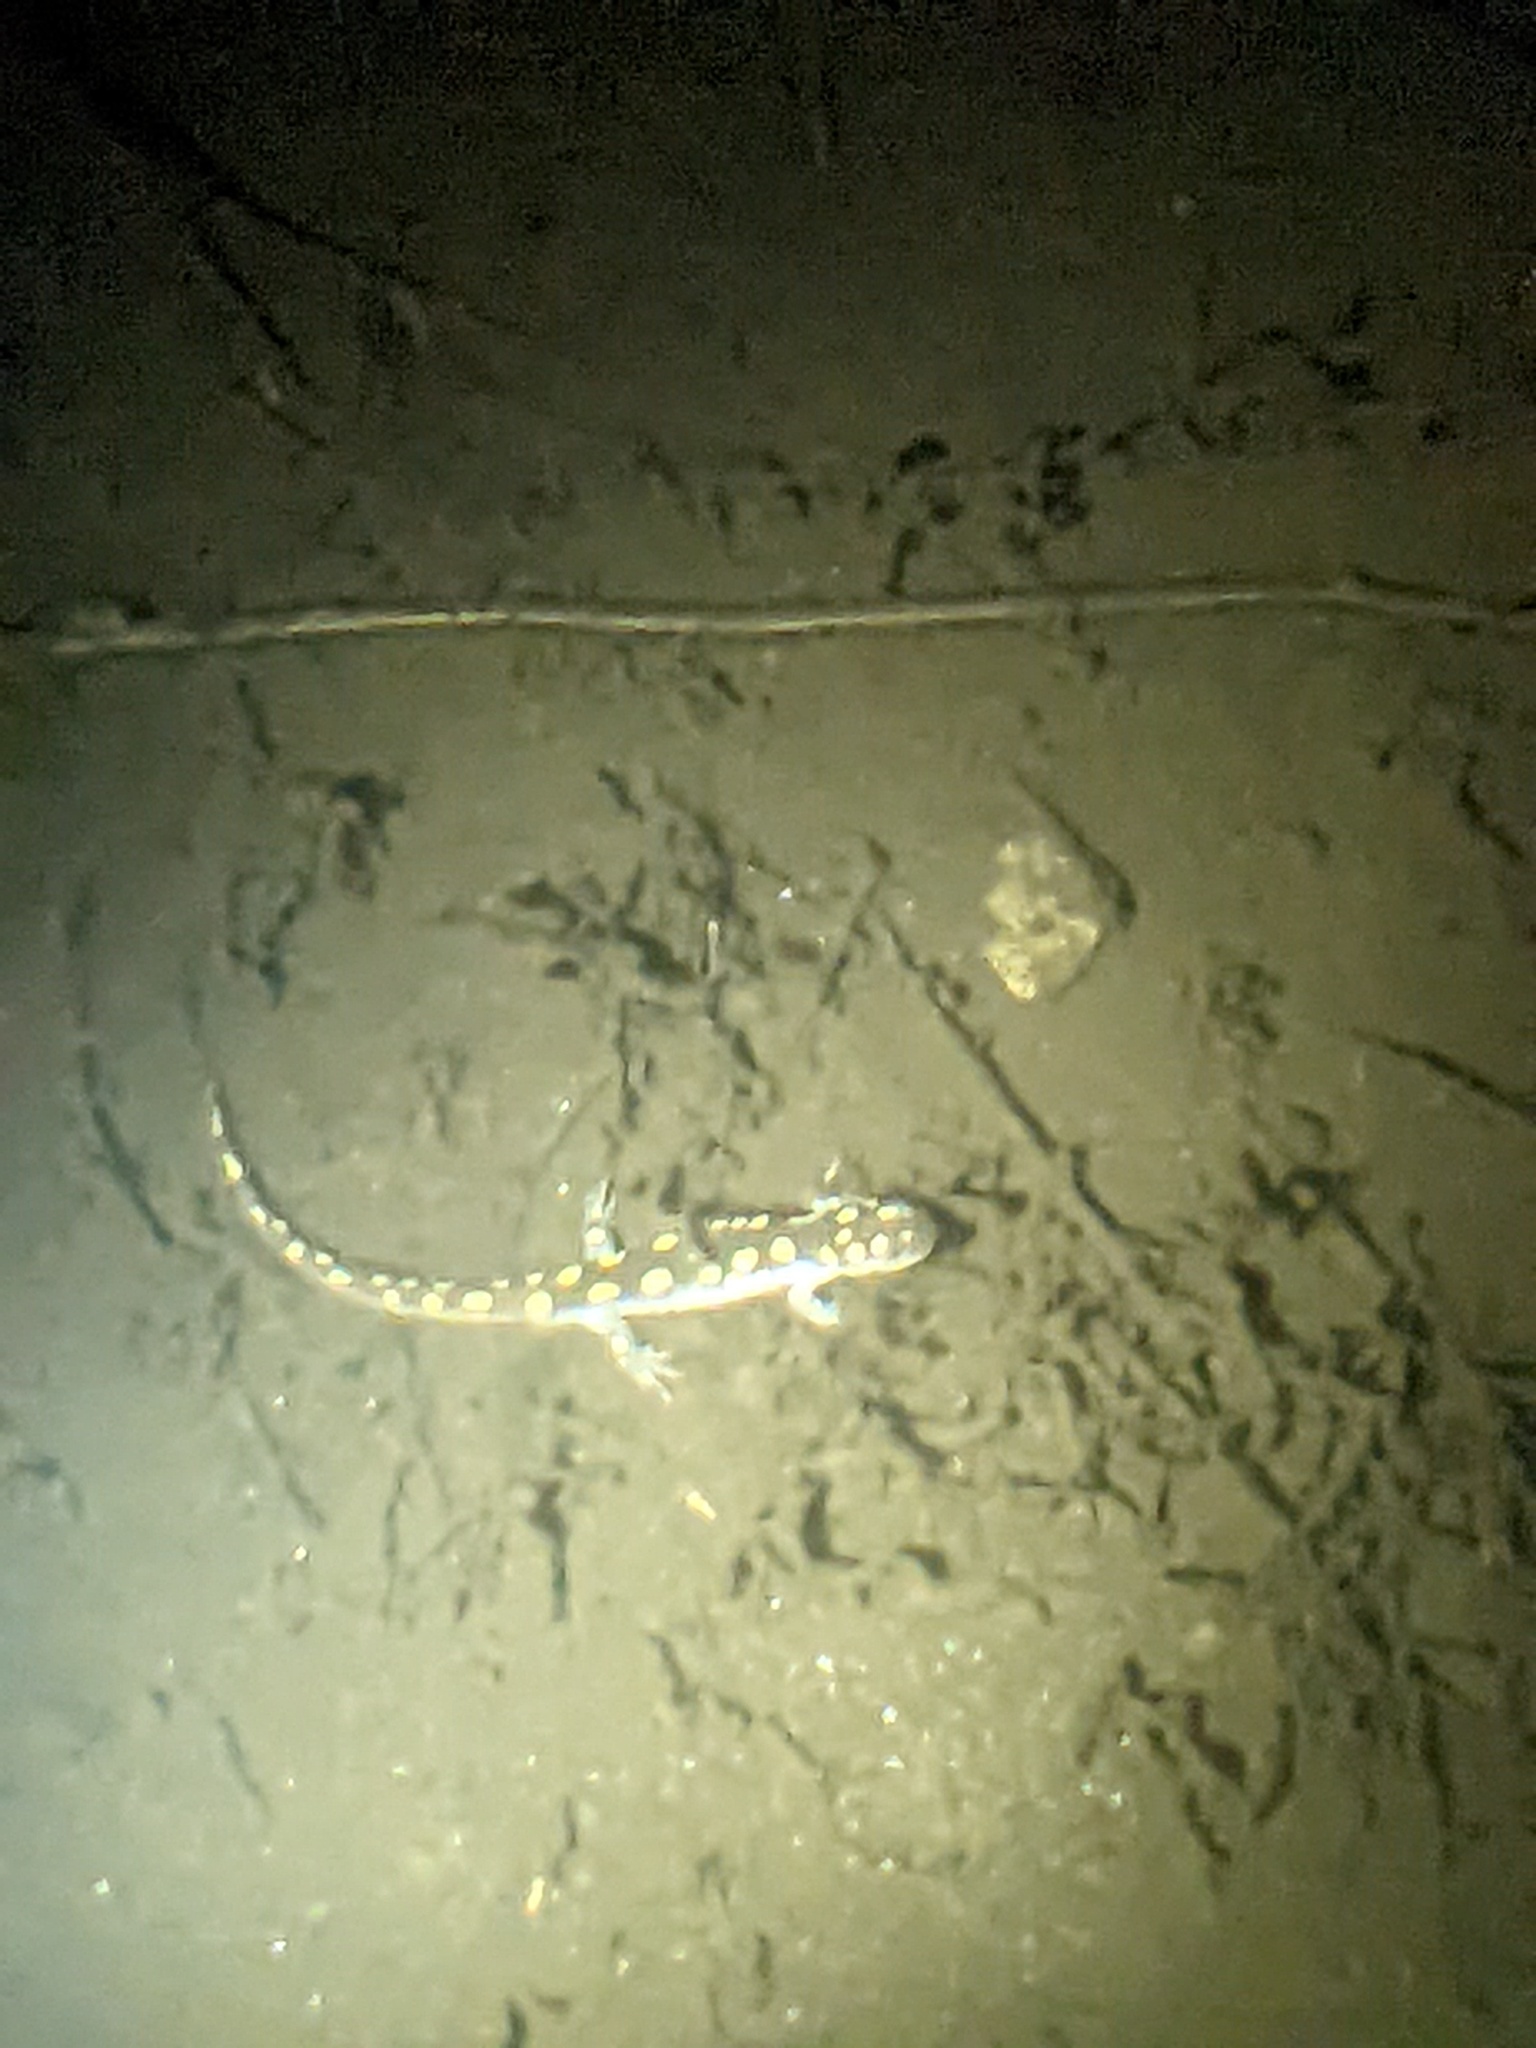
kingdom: Animalia
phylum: Chordata
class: Amphibia
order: Caudata
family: Ambystomatidae
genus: Ambystoma
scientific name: Ambystoma maculatum
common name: Spotted salamander
